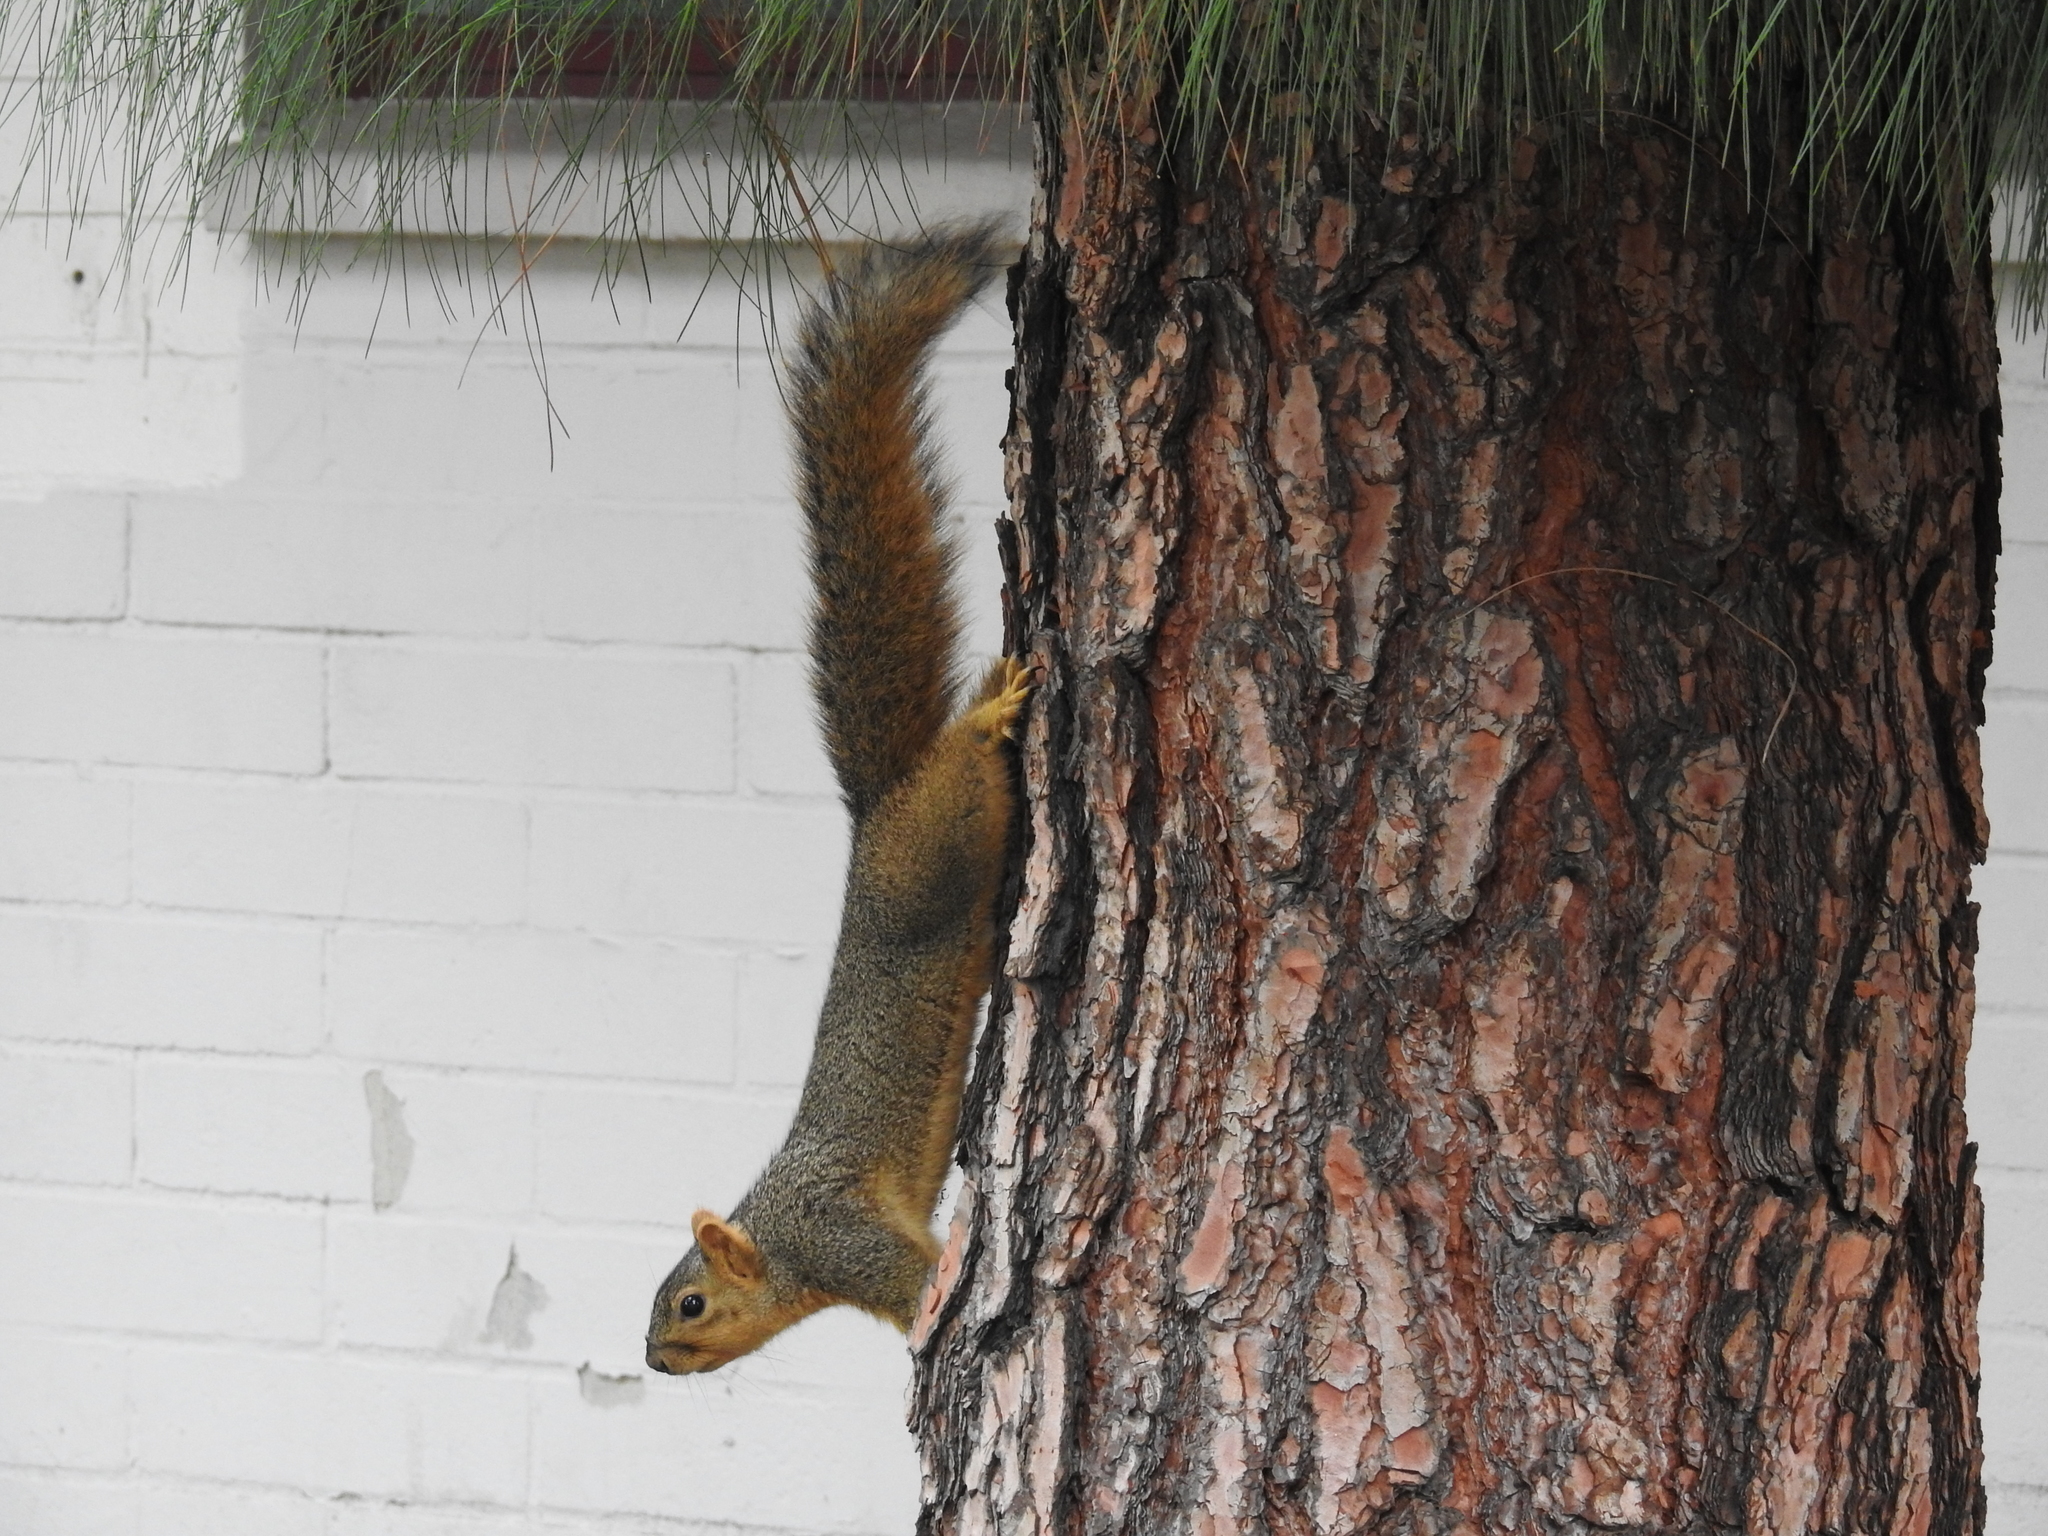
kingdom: Animalia
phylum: Chordata
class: Mammalia
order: Rodentia
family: Sciuridae
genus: Sciurus
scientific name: Sciurus niger
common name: Fox squirrel
